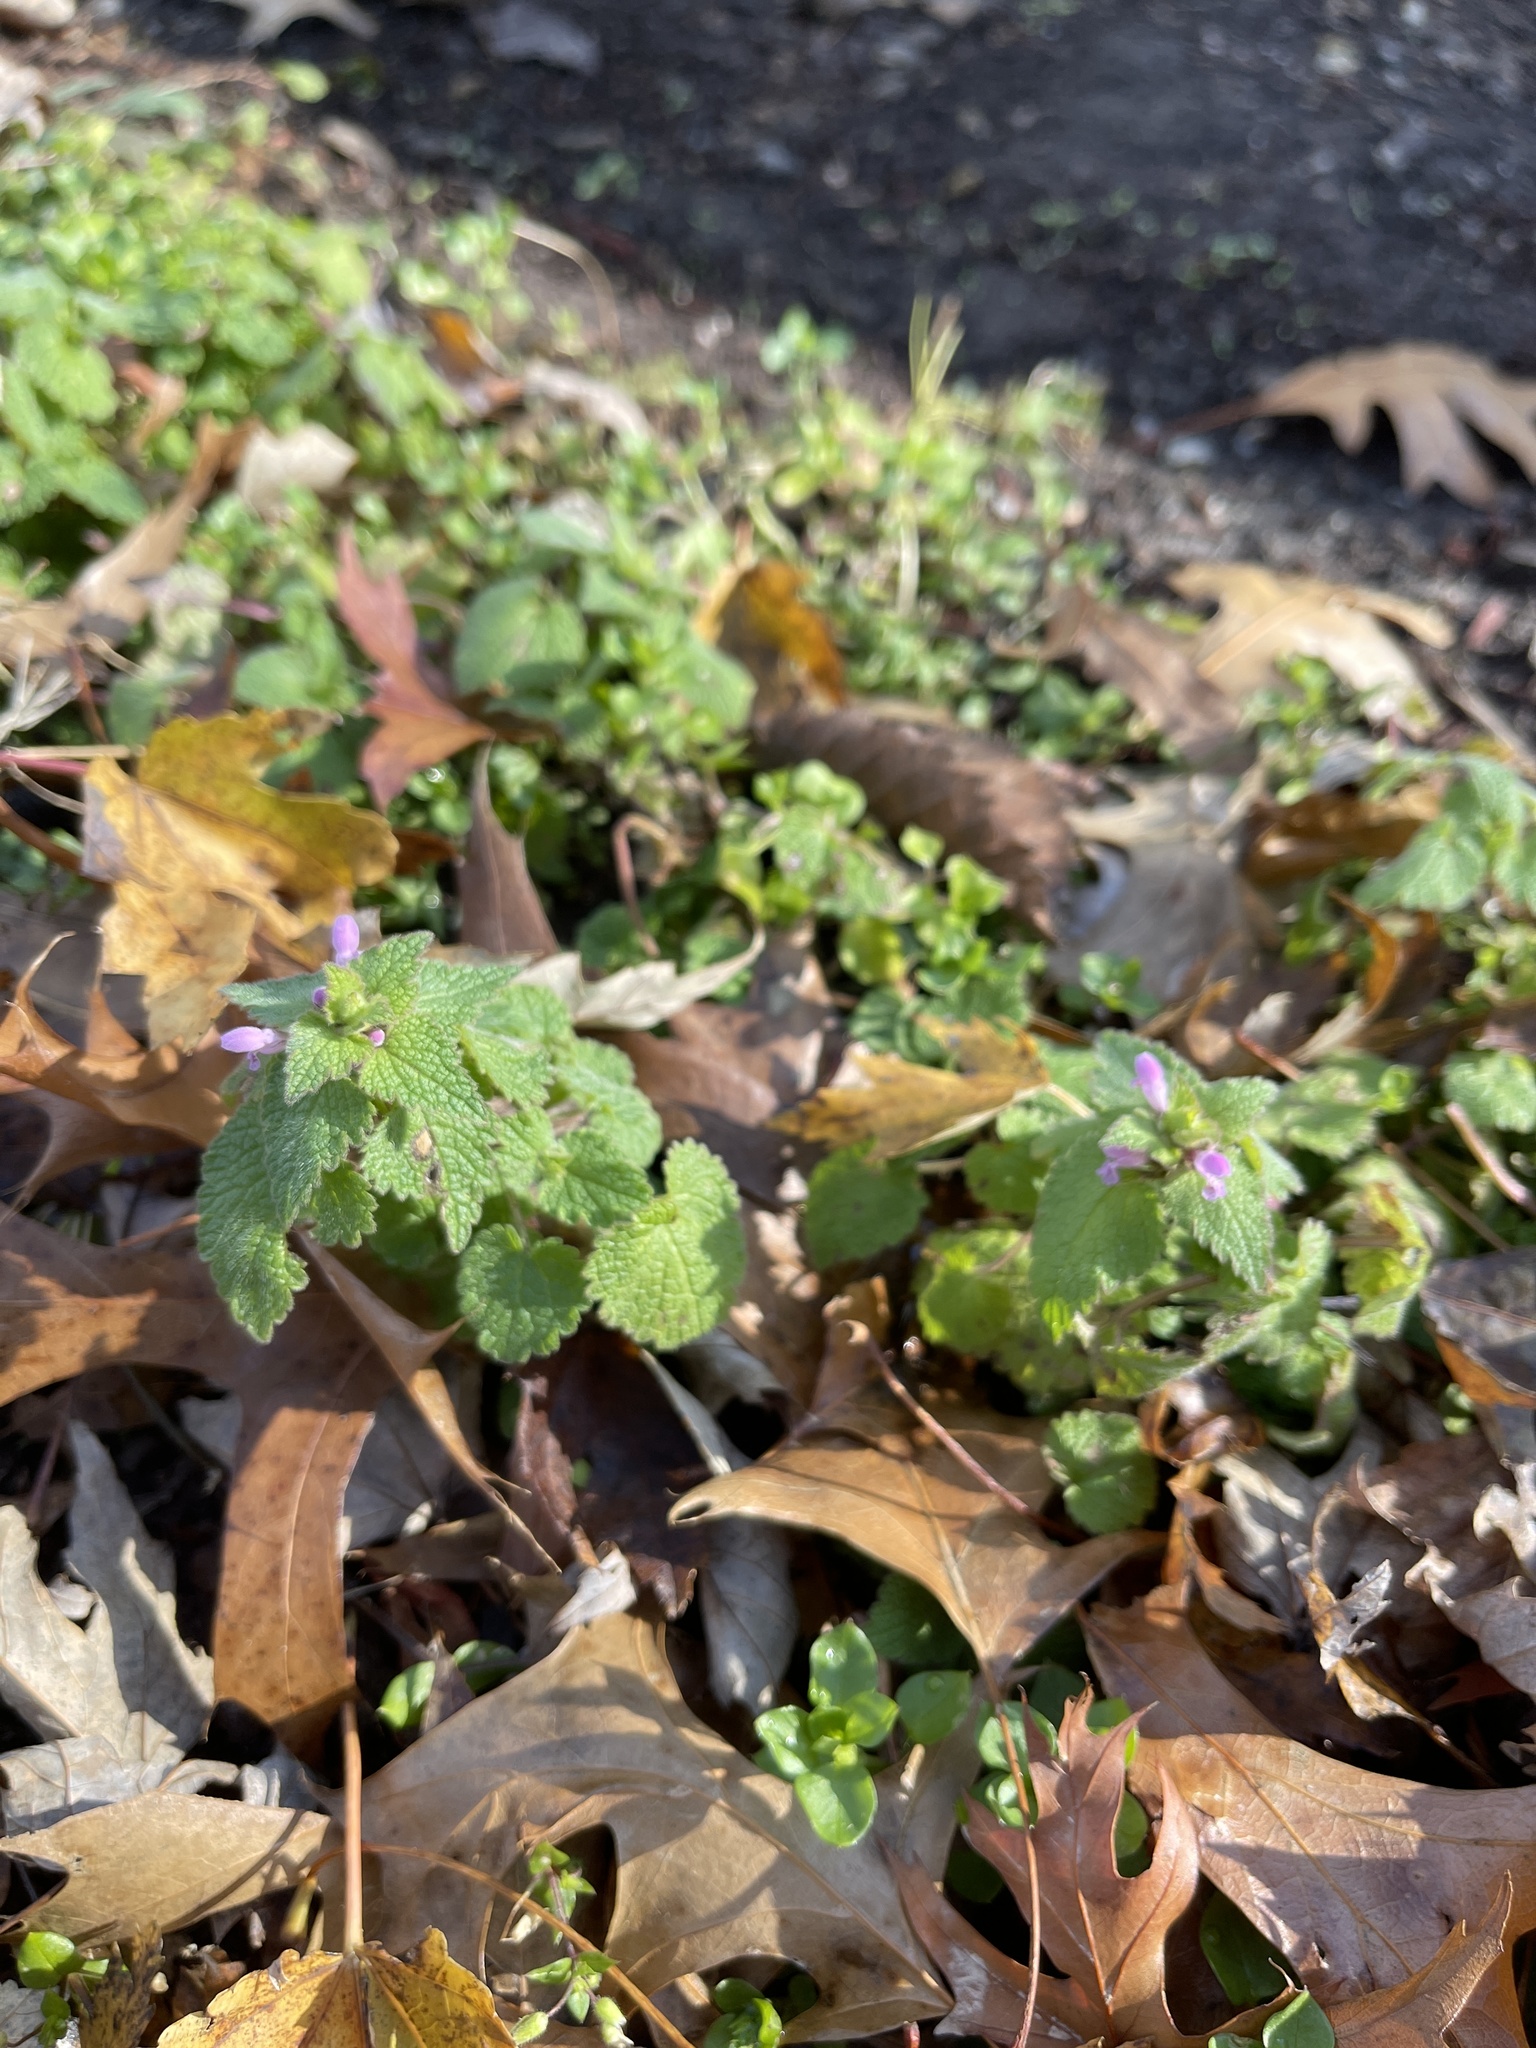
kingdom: Plantae
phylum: Tracheophyta
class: Magnoliopsida
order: Lamiales
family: Lamiaceae
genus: Lamium
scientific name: Lamium purpureum
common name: Red dead-nettle
